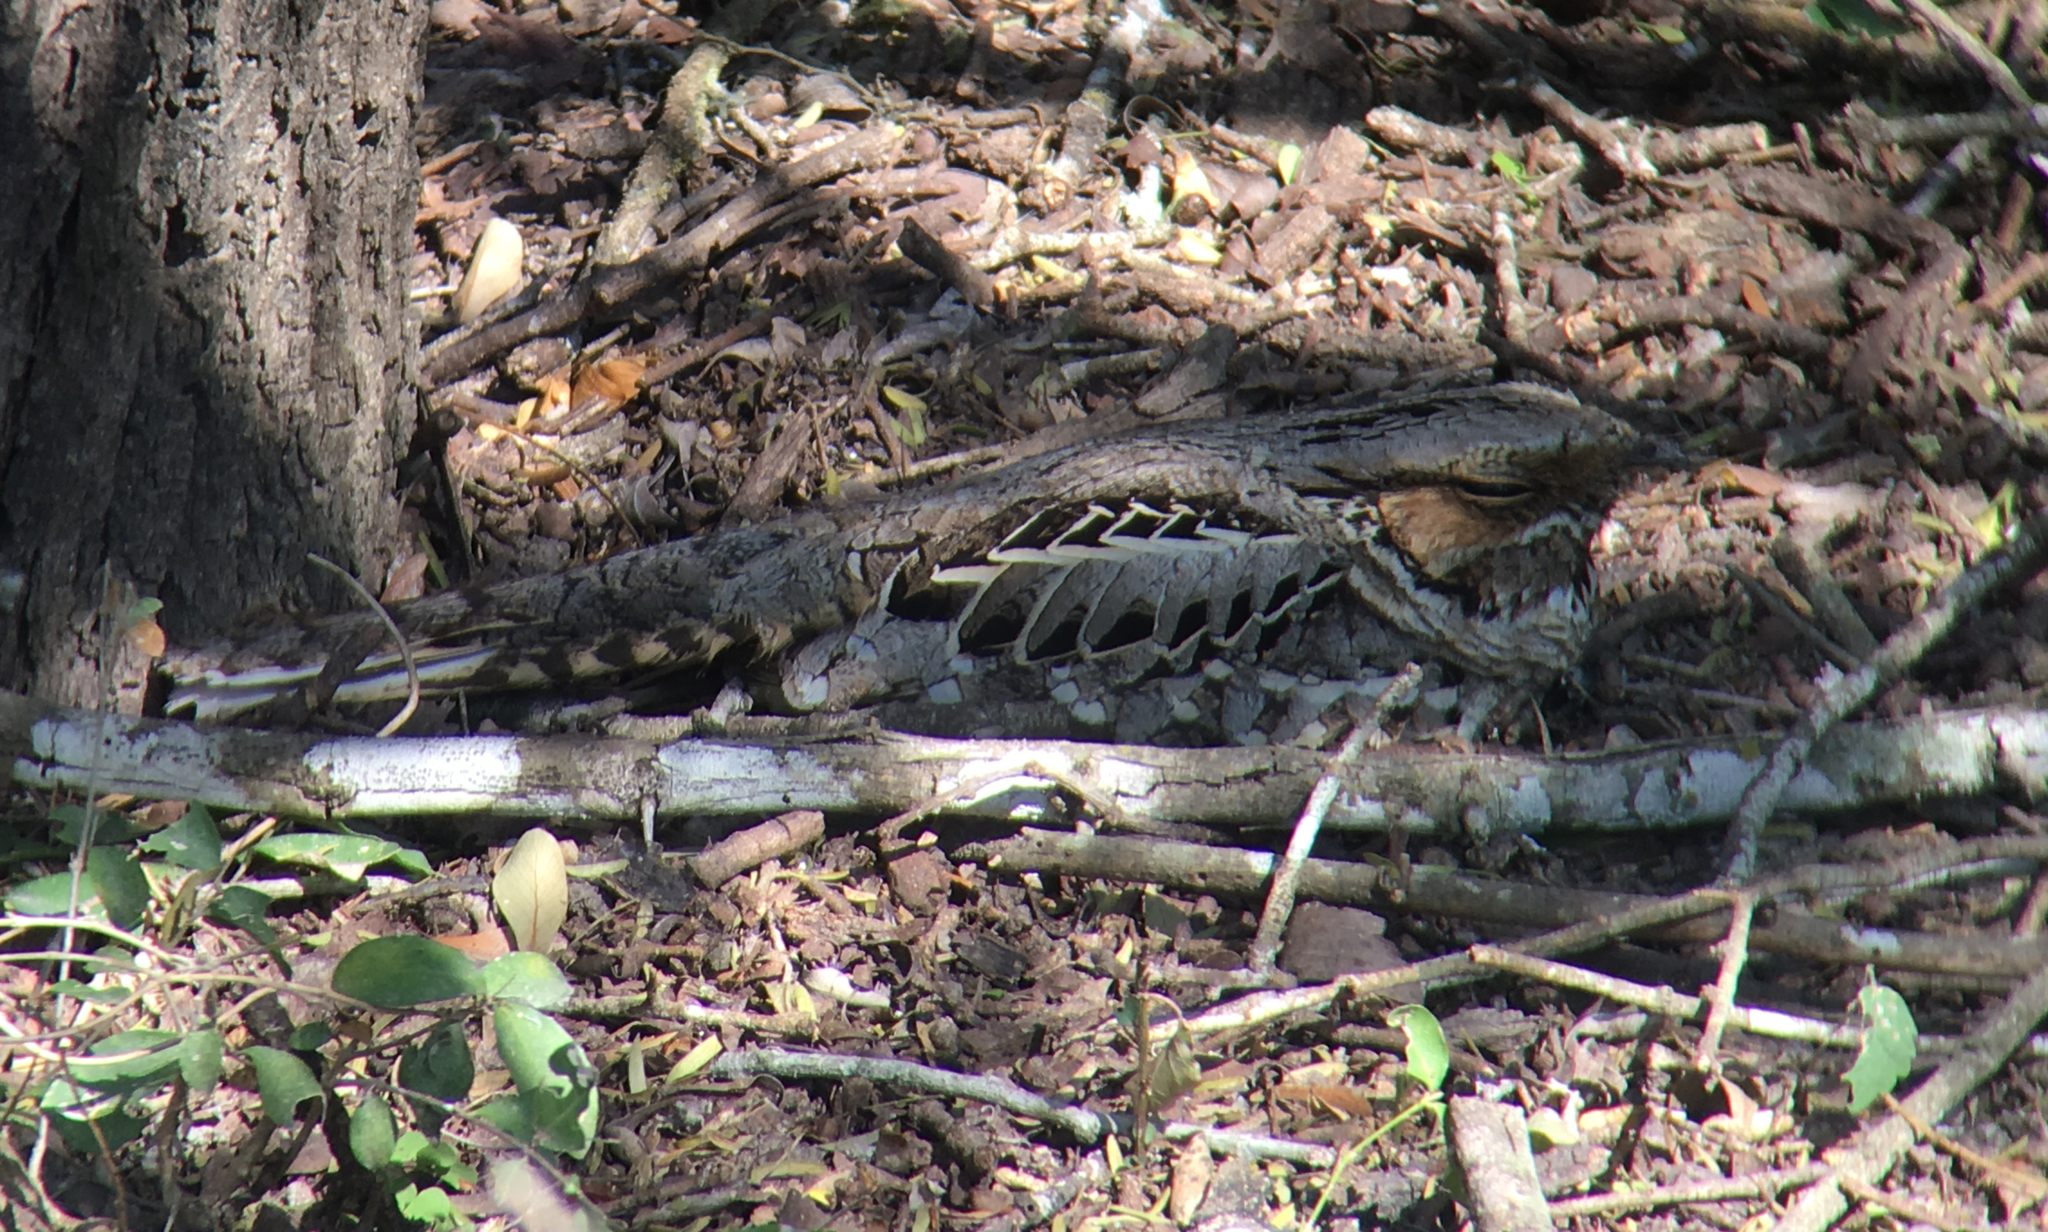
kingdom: Animalia
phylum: Chordata
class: Aves
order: Caprimulgiformes
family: Caprimulgidae
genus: Nyctidromus
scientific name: Nyctidromus albicollis
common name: Pauraque
